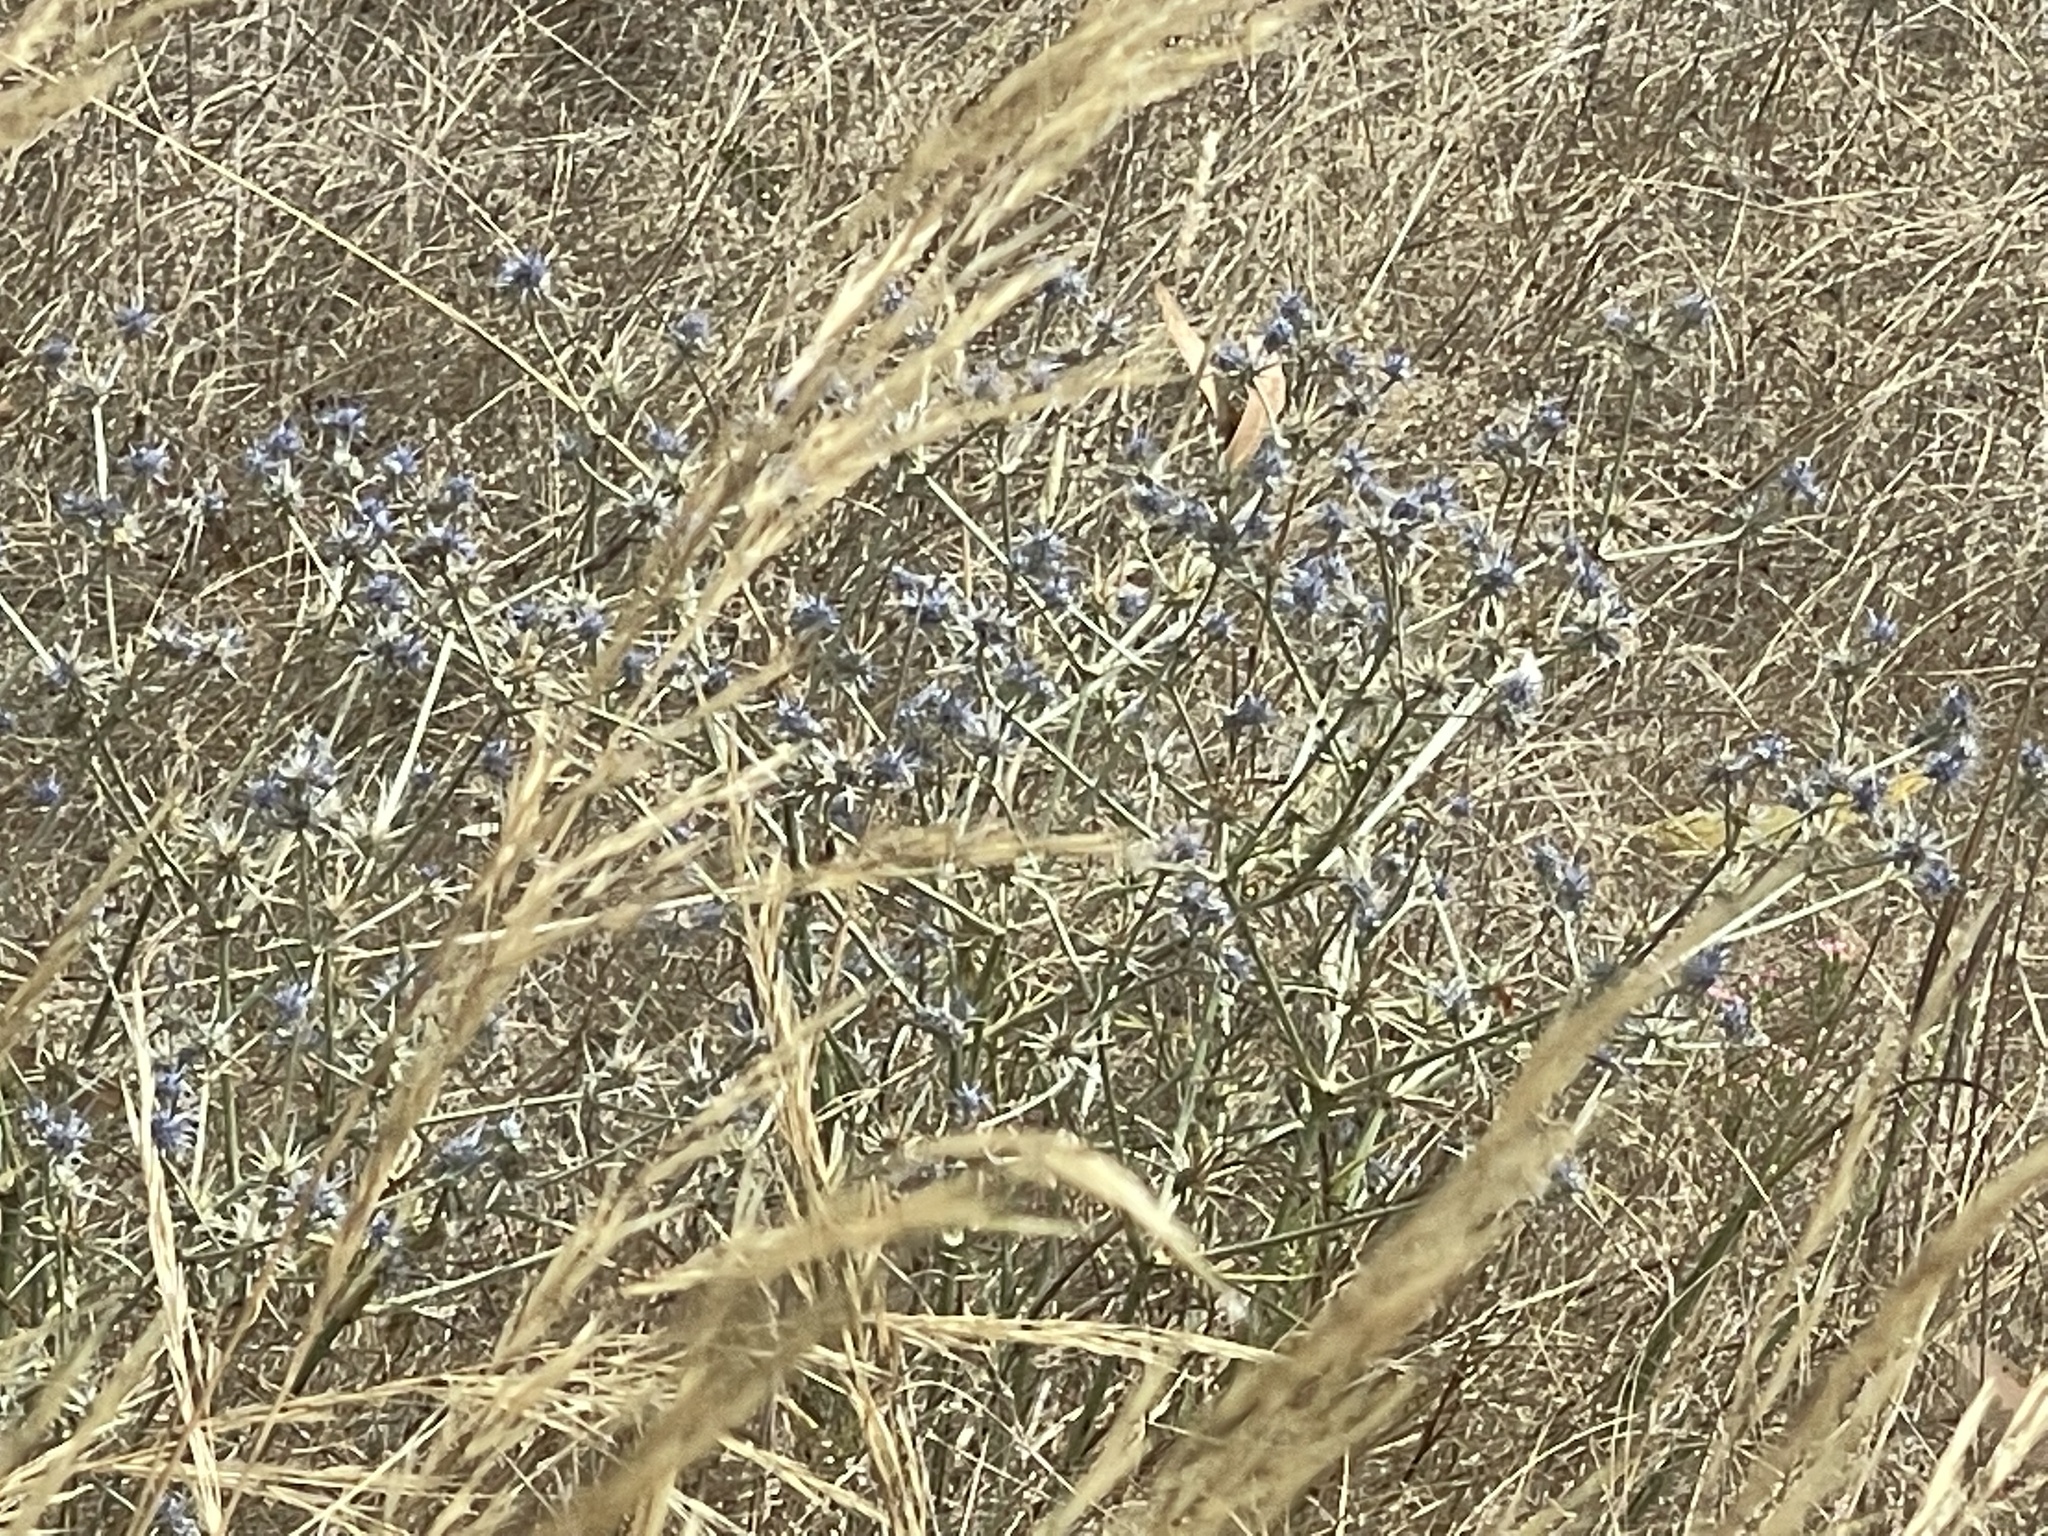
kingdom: Plantae
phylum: Tracheophyta
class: Magnoliopsida
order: Apiales
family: Apiaceae
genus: Eryngium
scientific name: Eryngium ovinum
